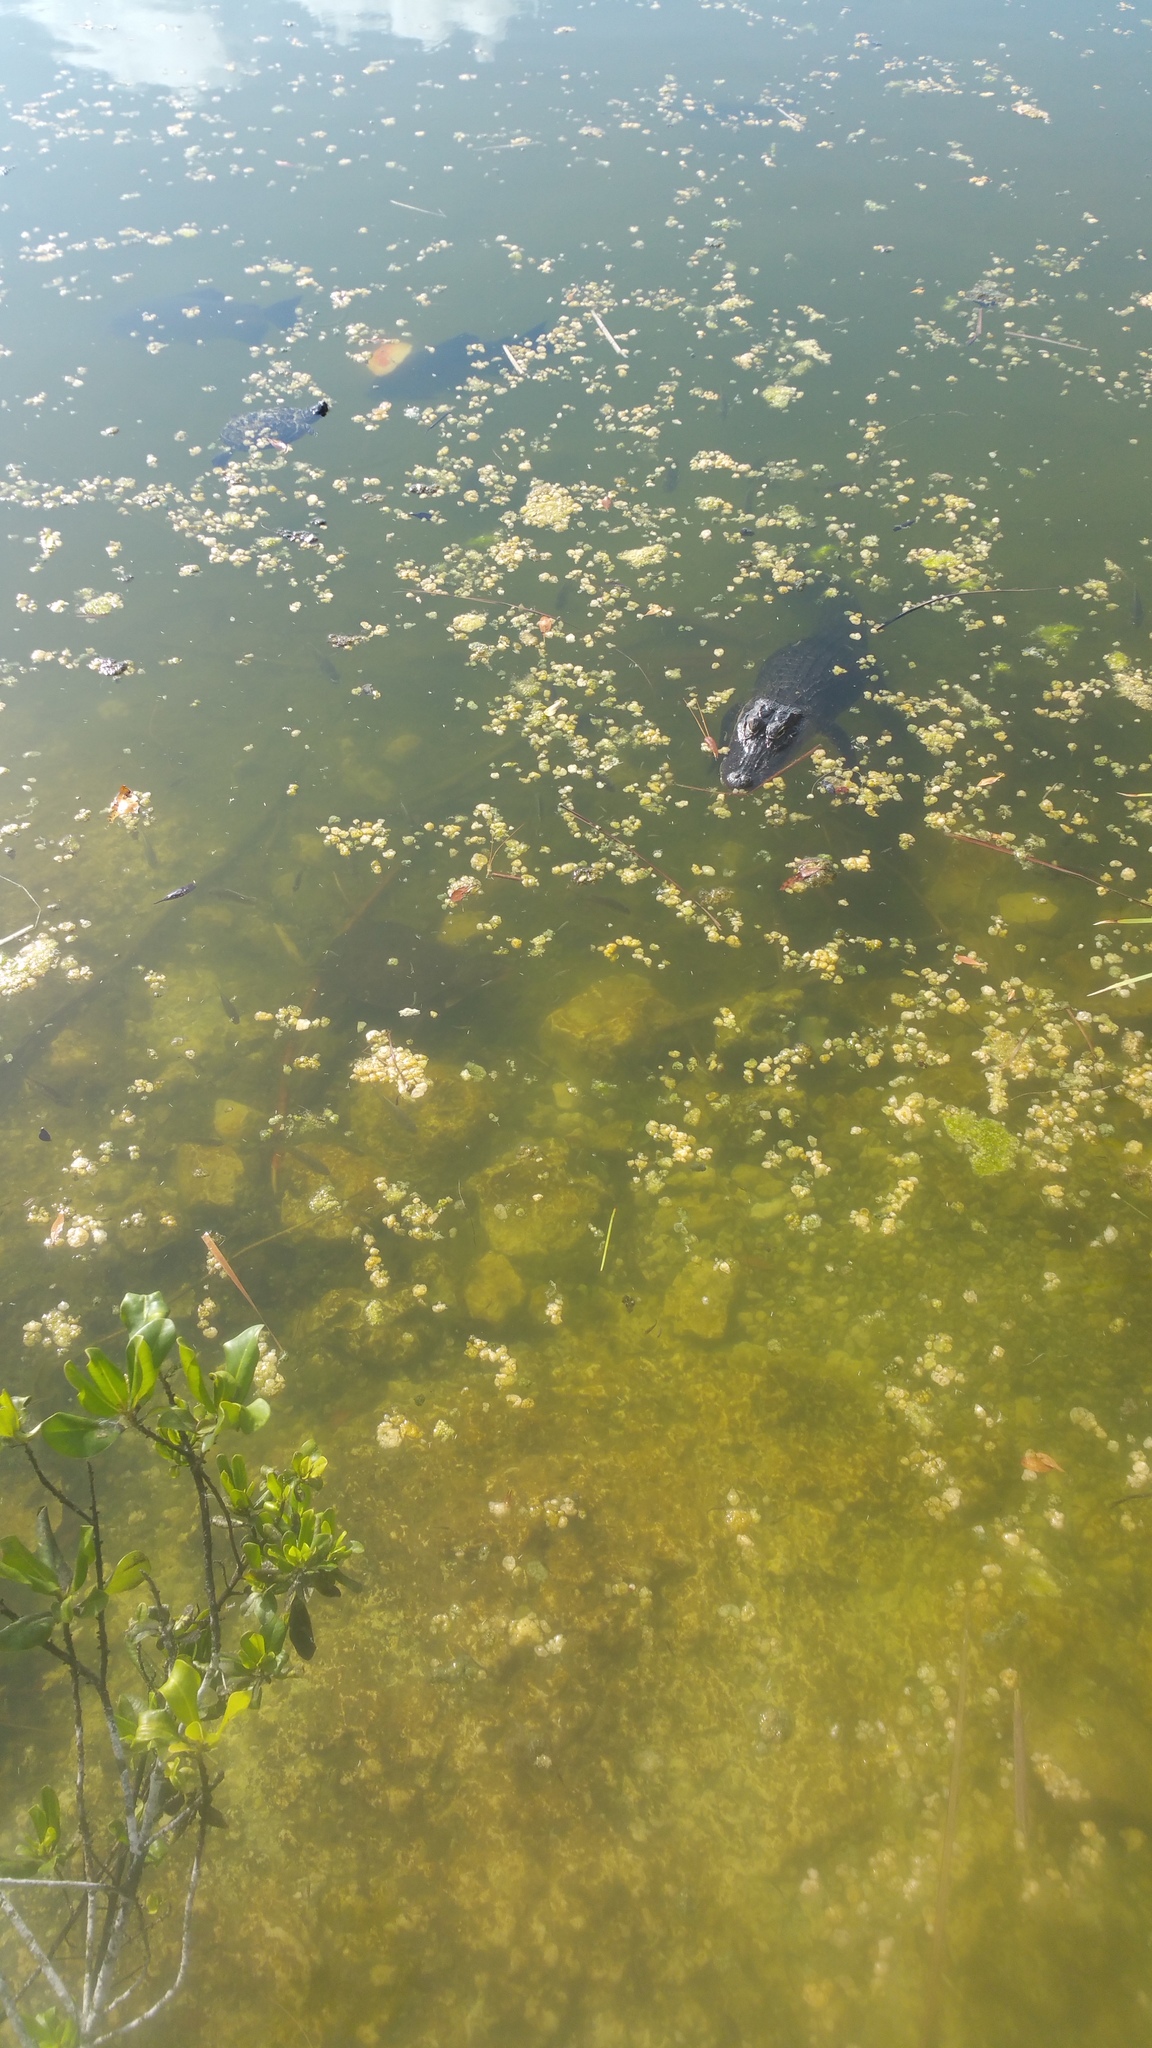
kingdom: Animalia
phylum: Chordata
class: Crocodylia
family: Alligatoridae
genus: Alligator
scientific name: Alligator mississippiensis
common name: American alligator
